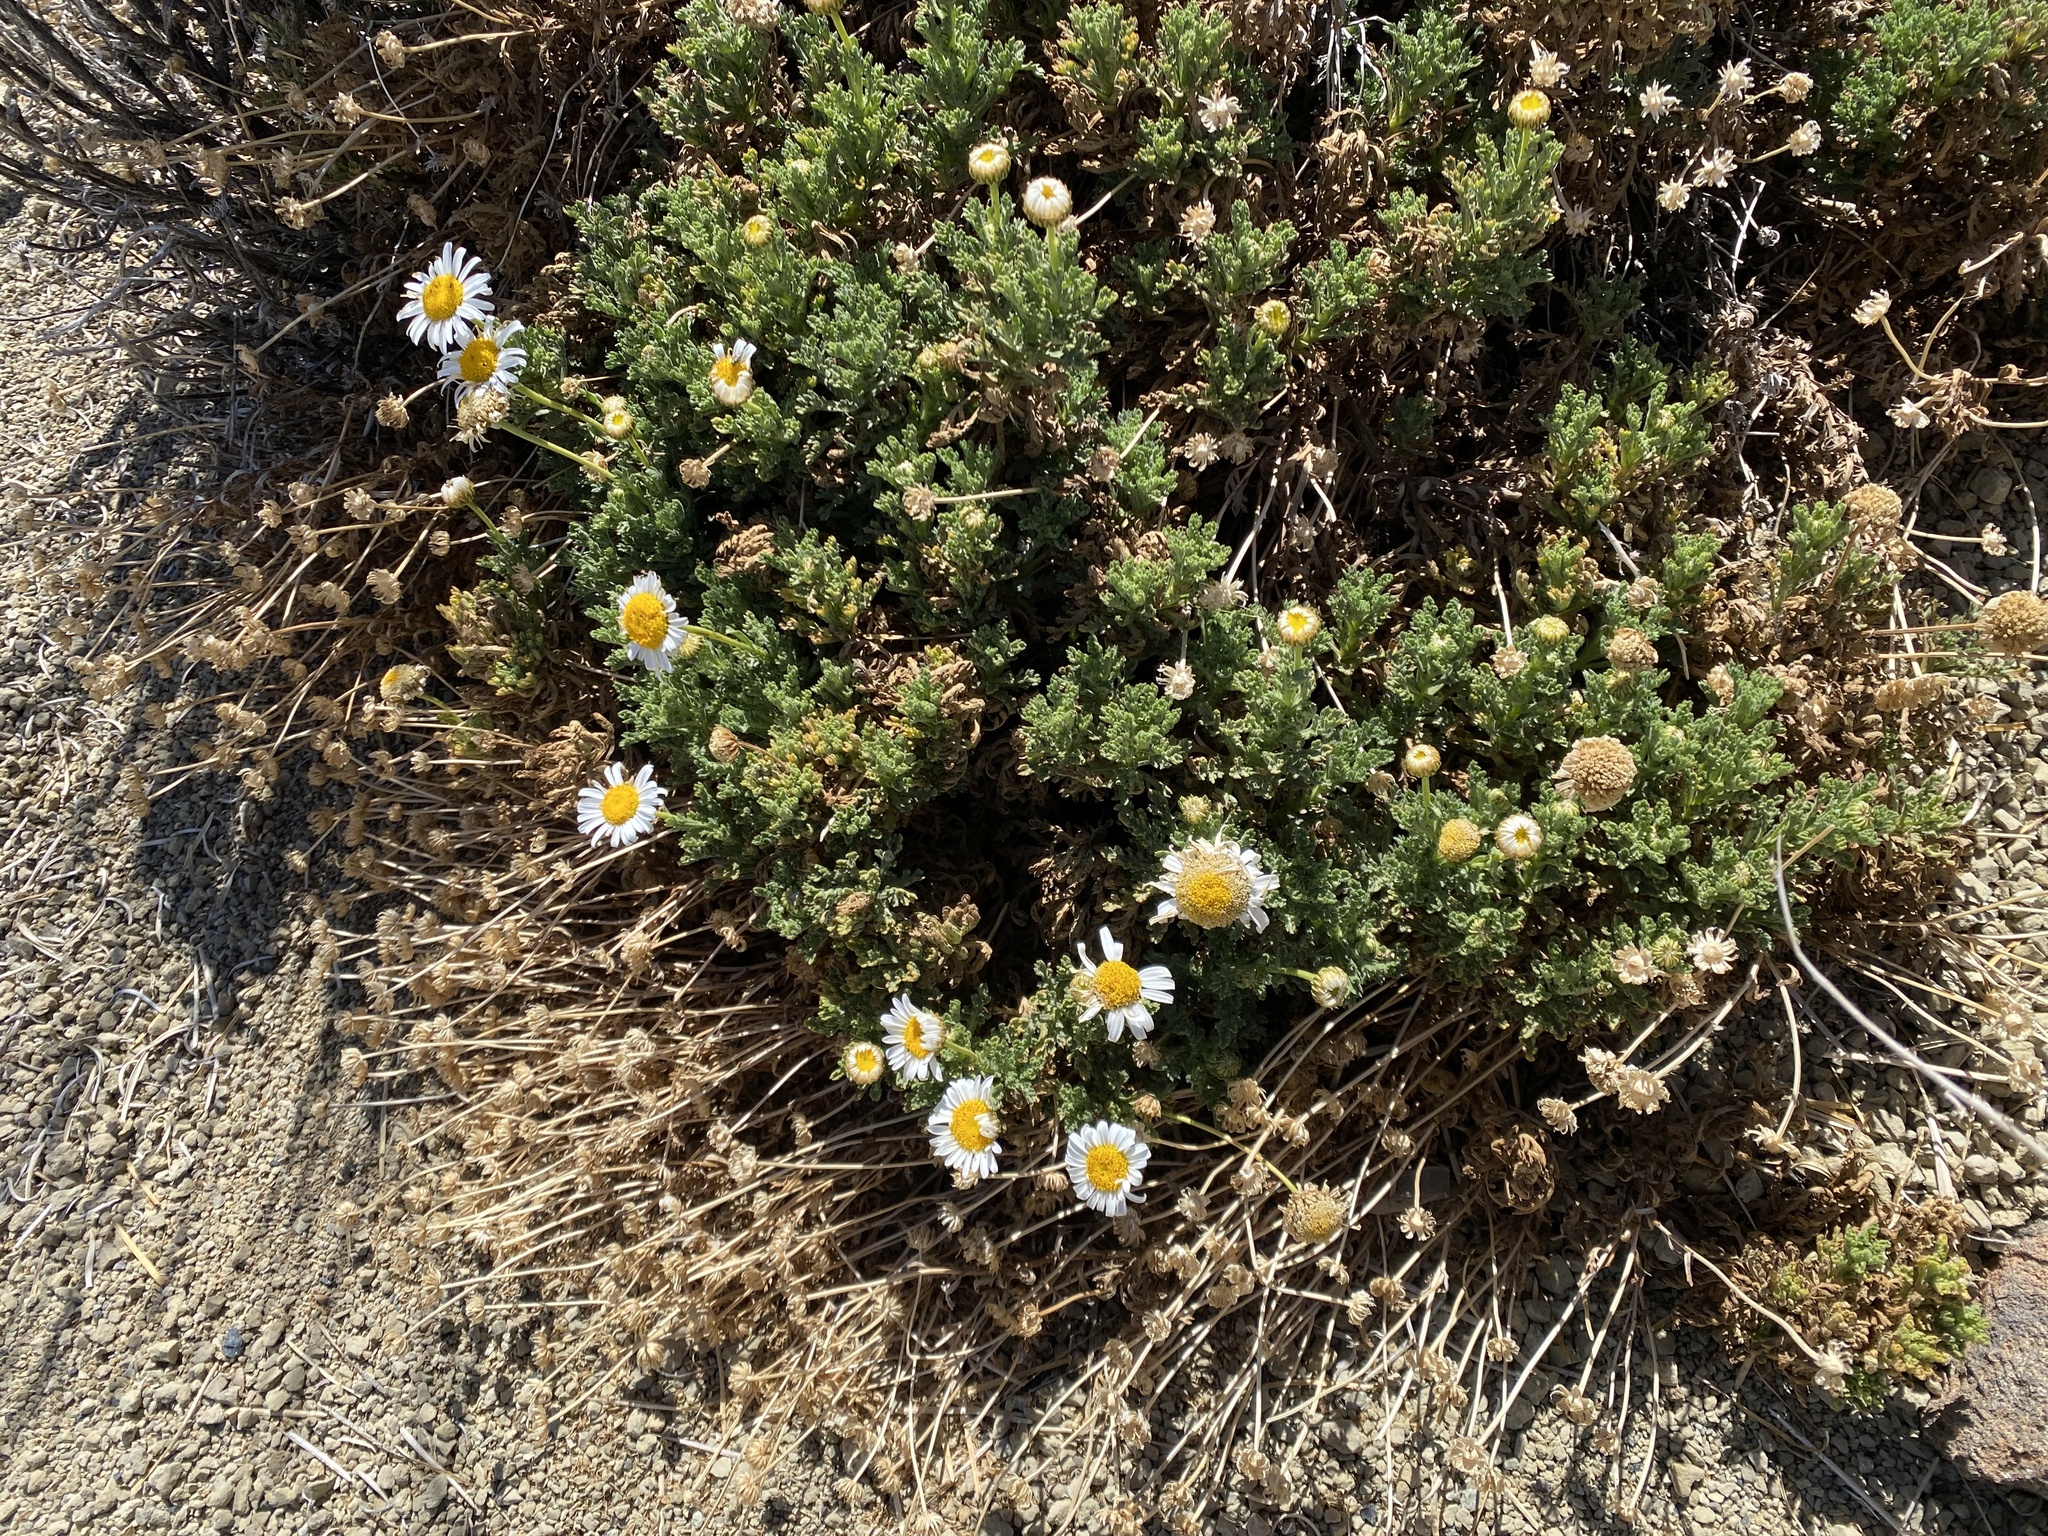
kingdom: Plantae
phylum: Tracheophyta
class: Magnoliopsida
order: Asterales
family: Asteraceae
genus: Argyranthemum
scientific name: Argyranthemum tenerifae
